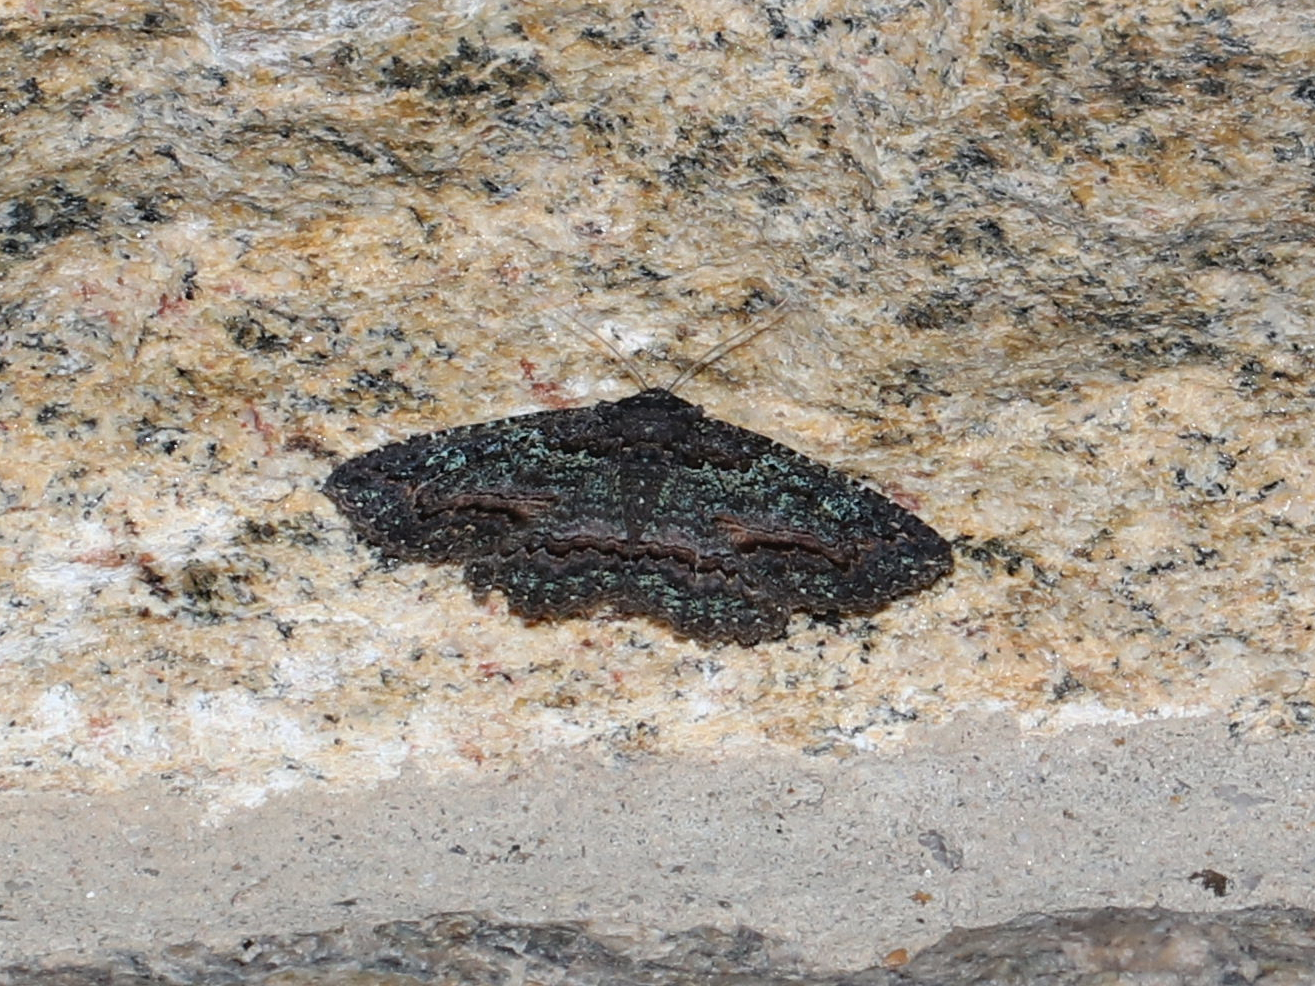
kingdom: Animalia
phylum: Arthropoda
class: Insecta
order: Lepidoptera
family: Erebidae
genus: Zale
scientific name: Zale aeruginosa
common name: Green-dusted zale moth
